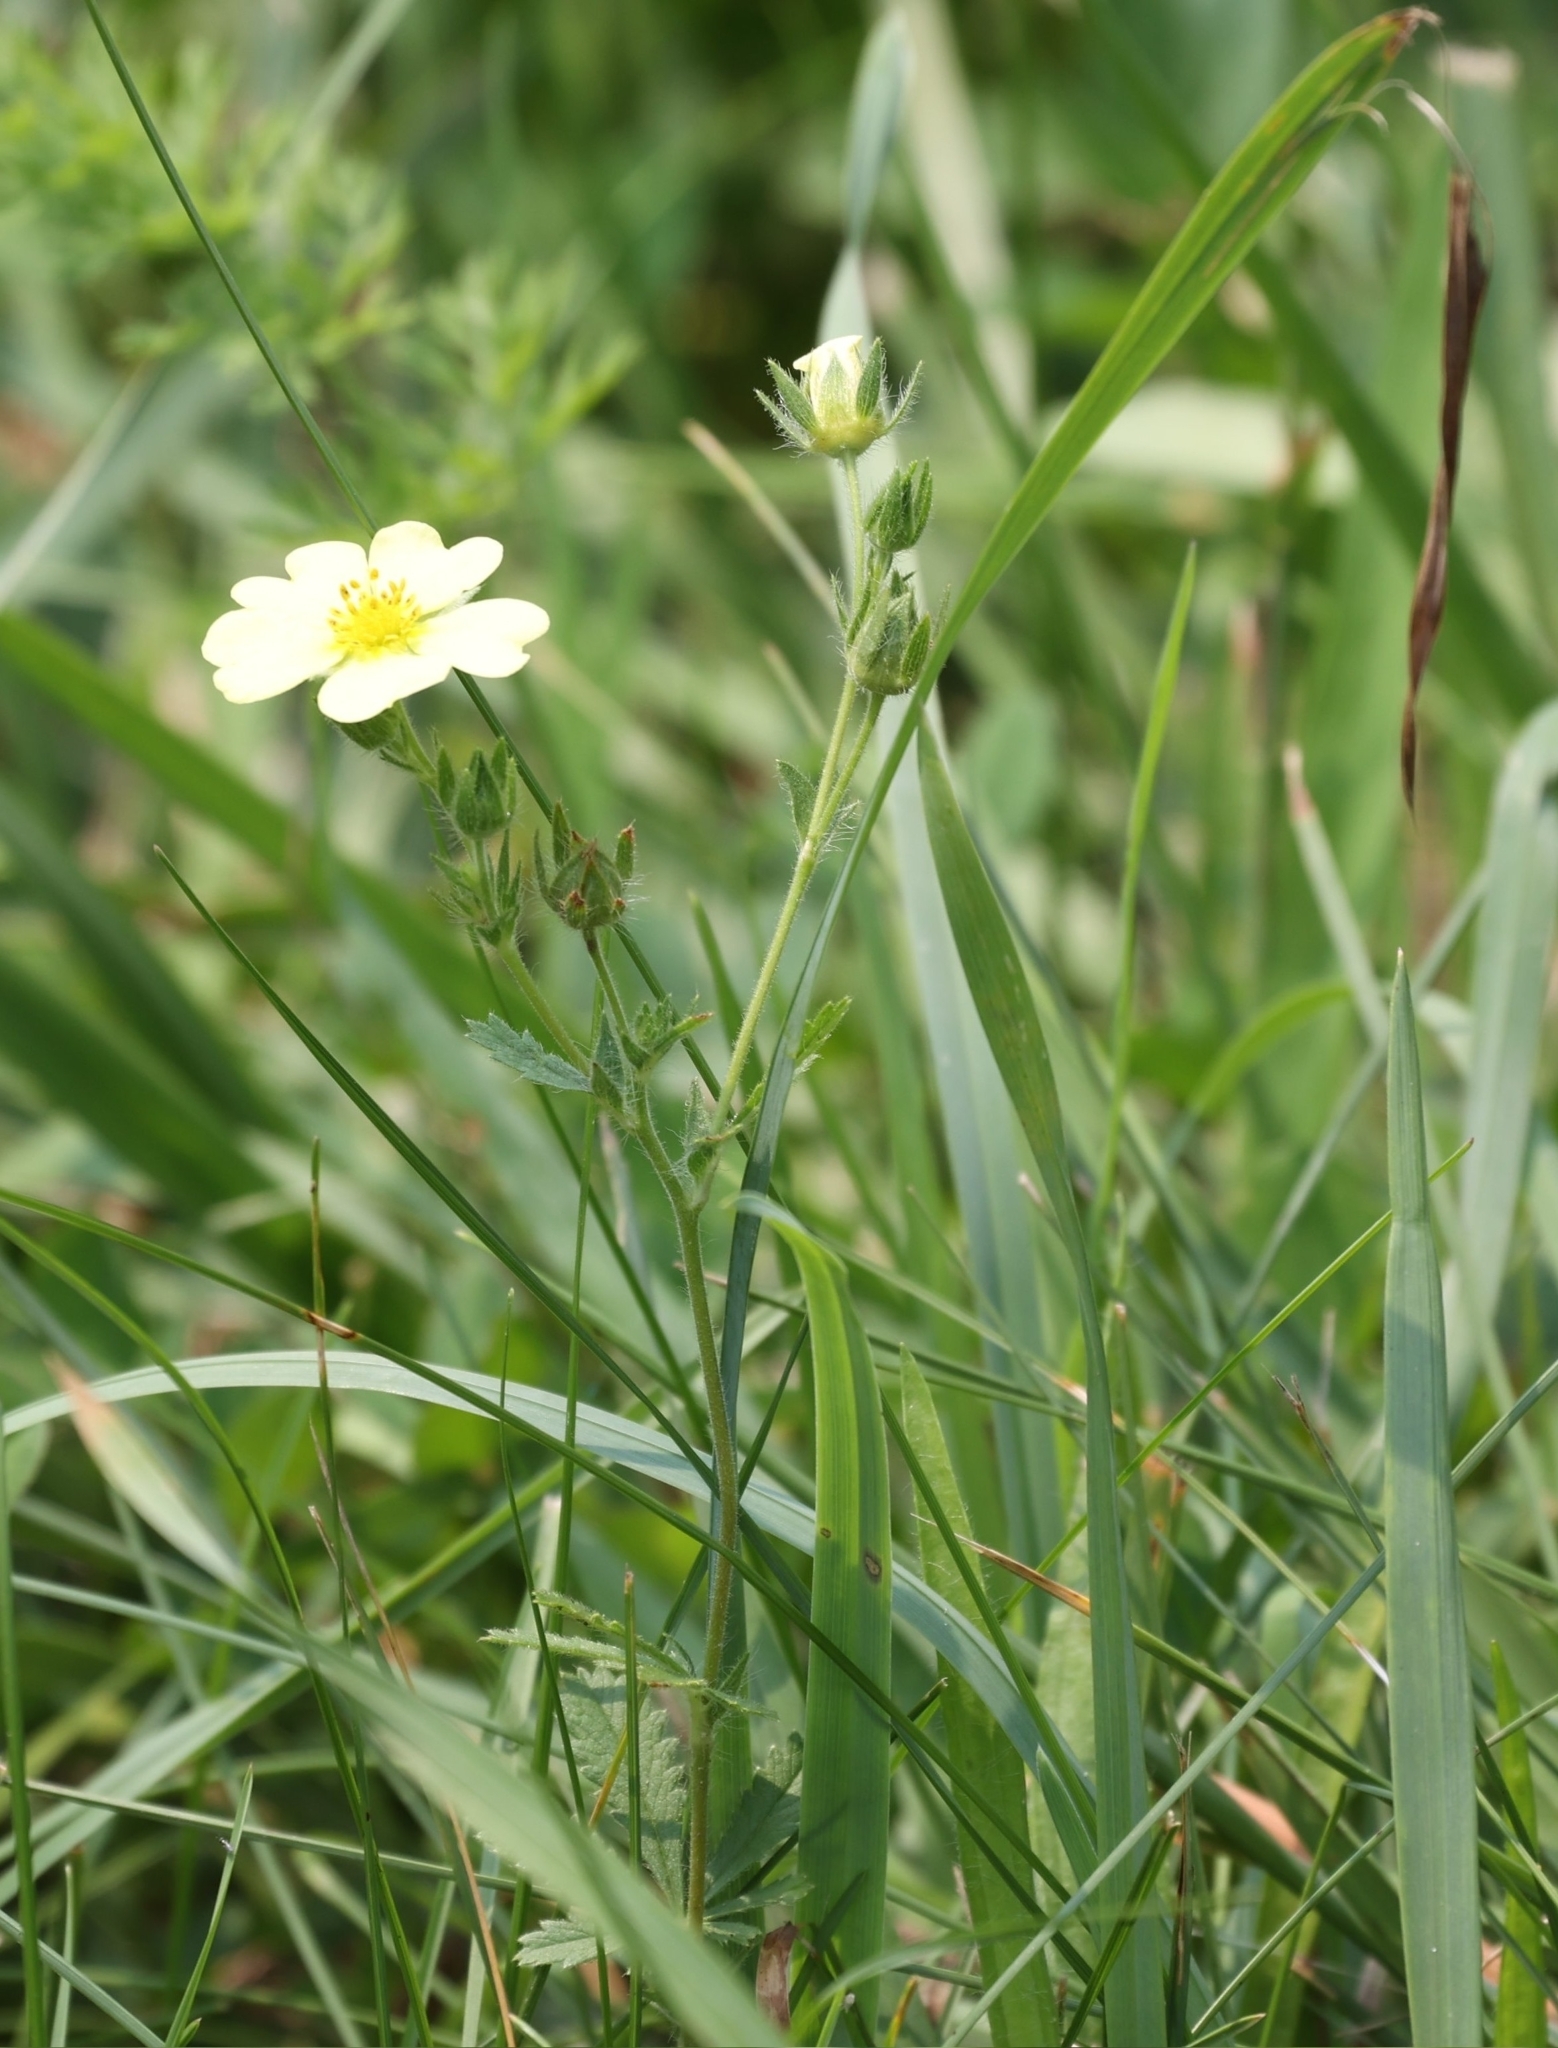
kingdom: Plantae
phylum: Tracheophyta
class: Magnoliopsida
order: Rosales
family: Rosaceae
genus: Potentilla
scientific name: Potentilla recta
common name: Sulphur cinquefoil
